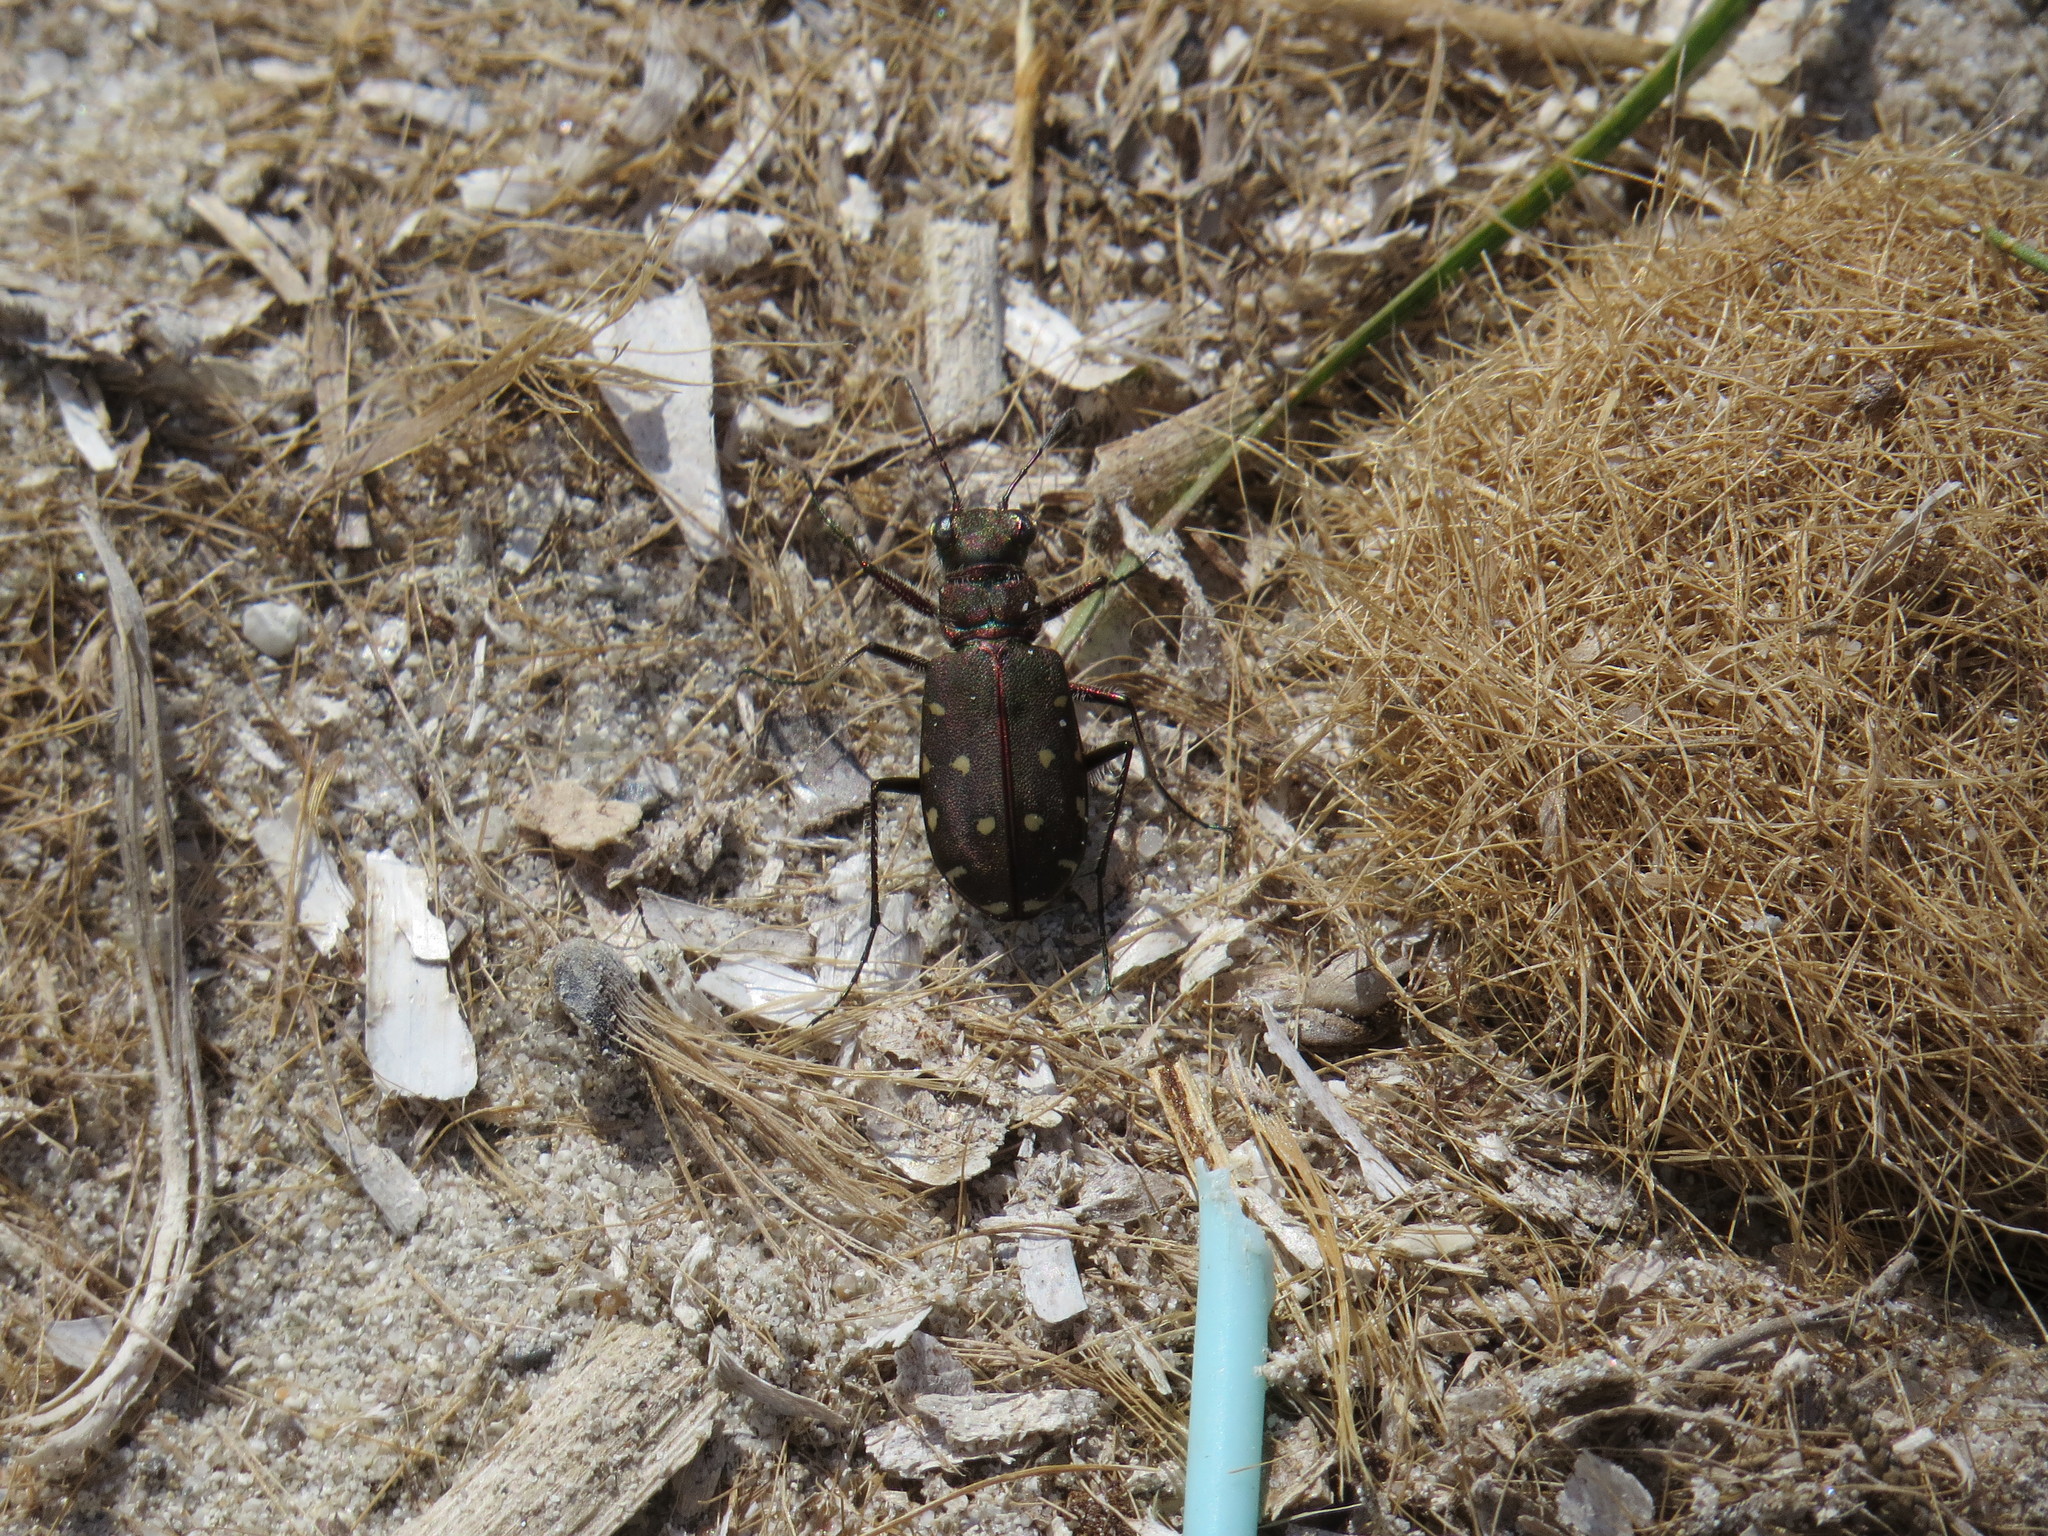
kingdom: Animalia
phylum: Arthropoda
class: Insecta
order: Coleoptera
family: Carabidae
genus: Cicindela
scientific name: Cicindela littoralis
